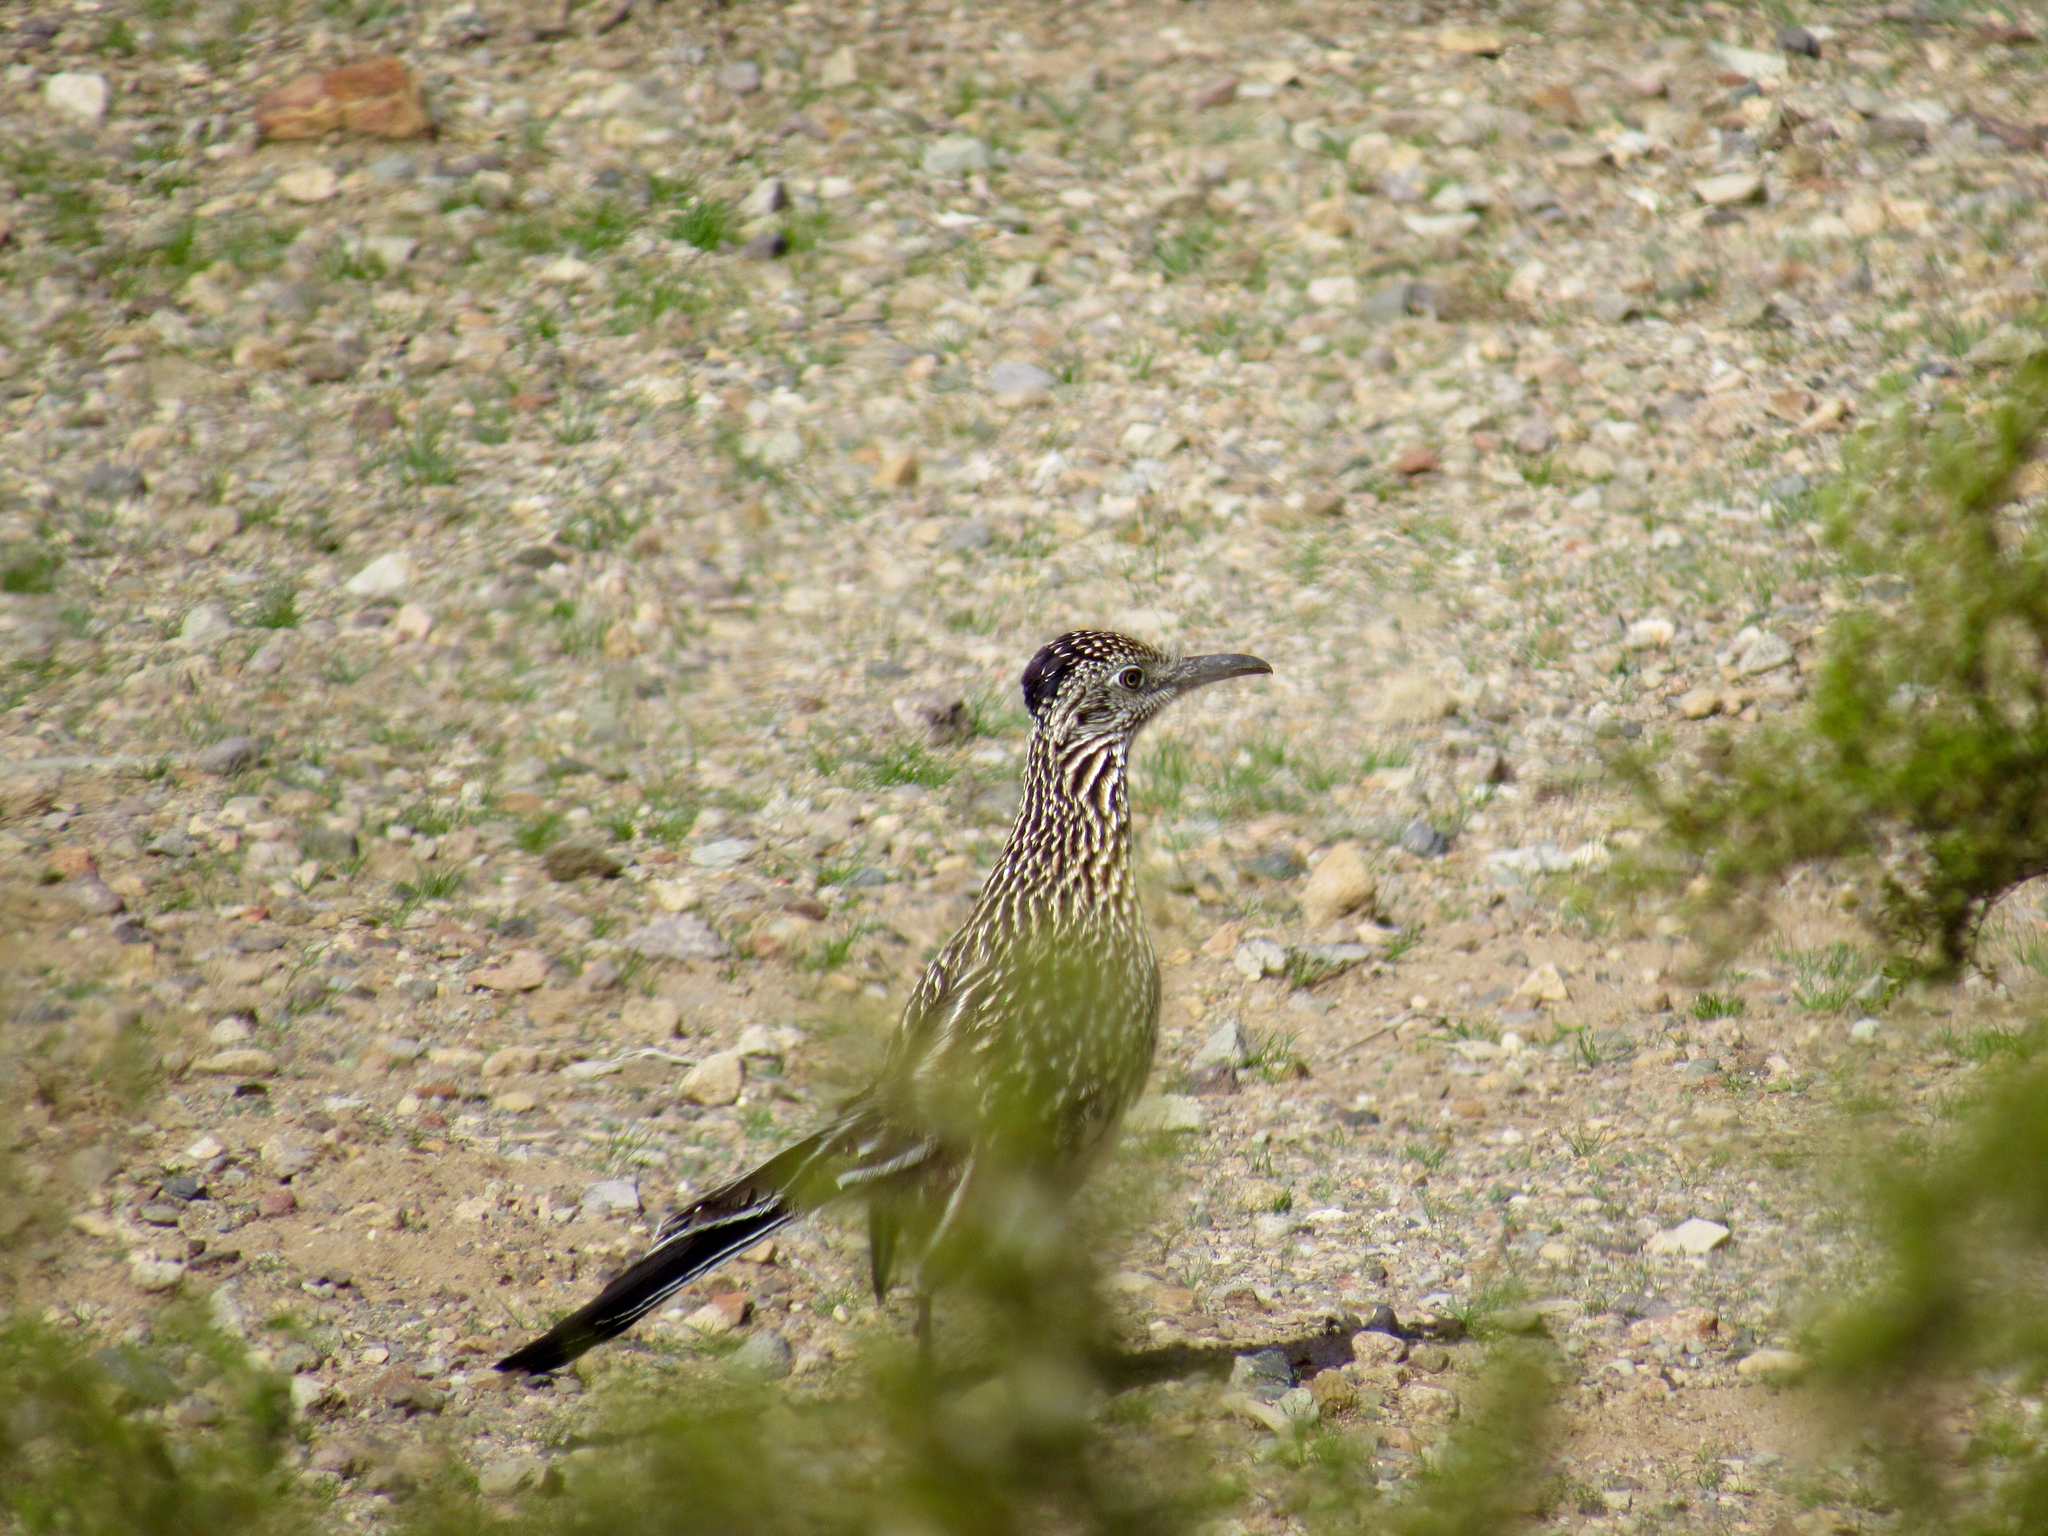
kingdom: Animalia
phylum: Chordata
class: Aves
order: Cuculiformes
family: Cuculidae
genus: Geococcyx
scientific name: Geococcyx californianus
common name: Greater roadrunner
